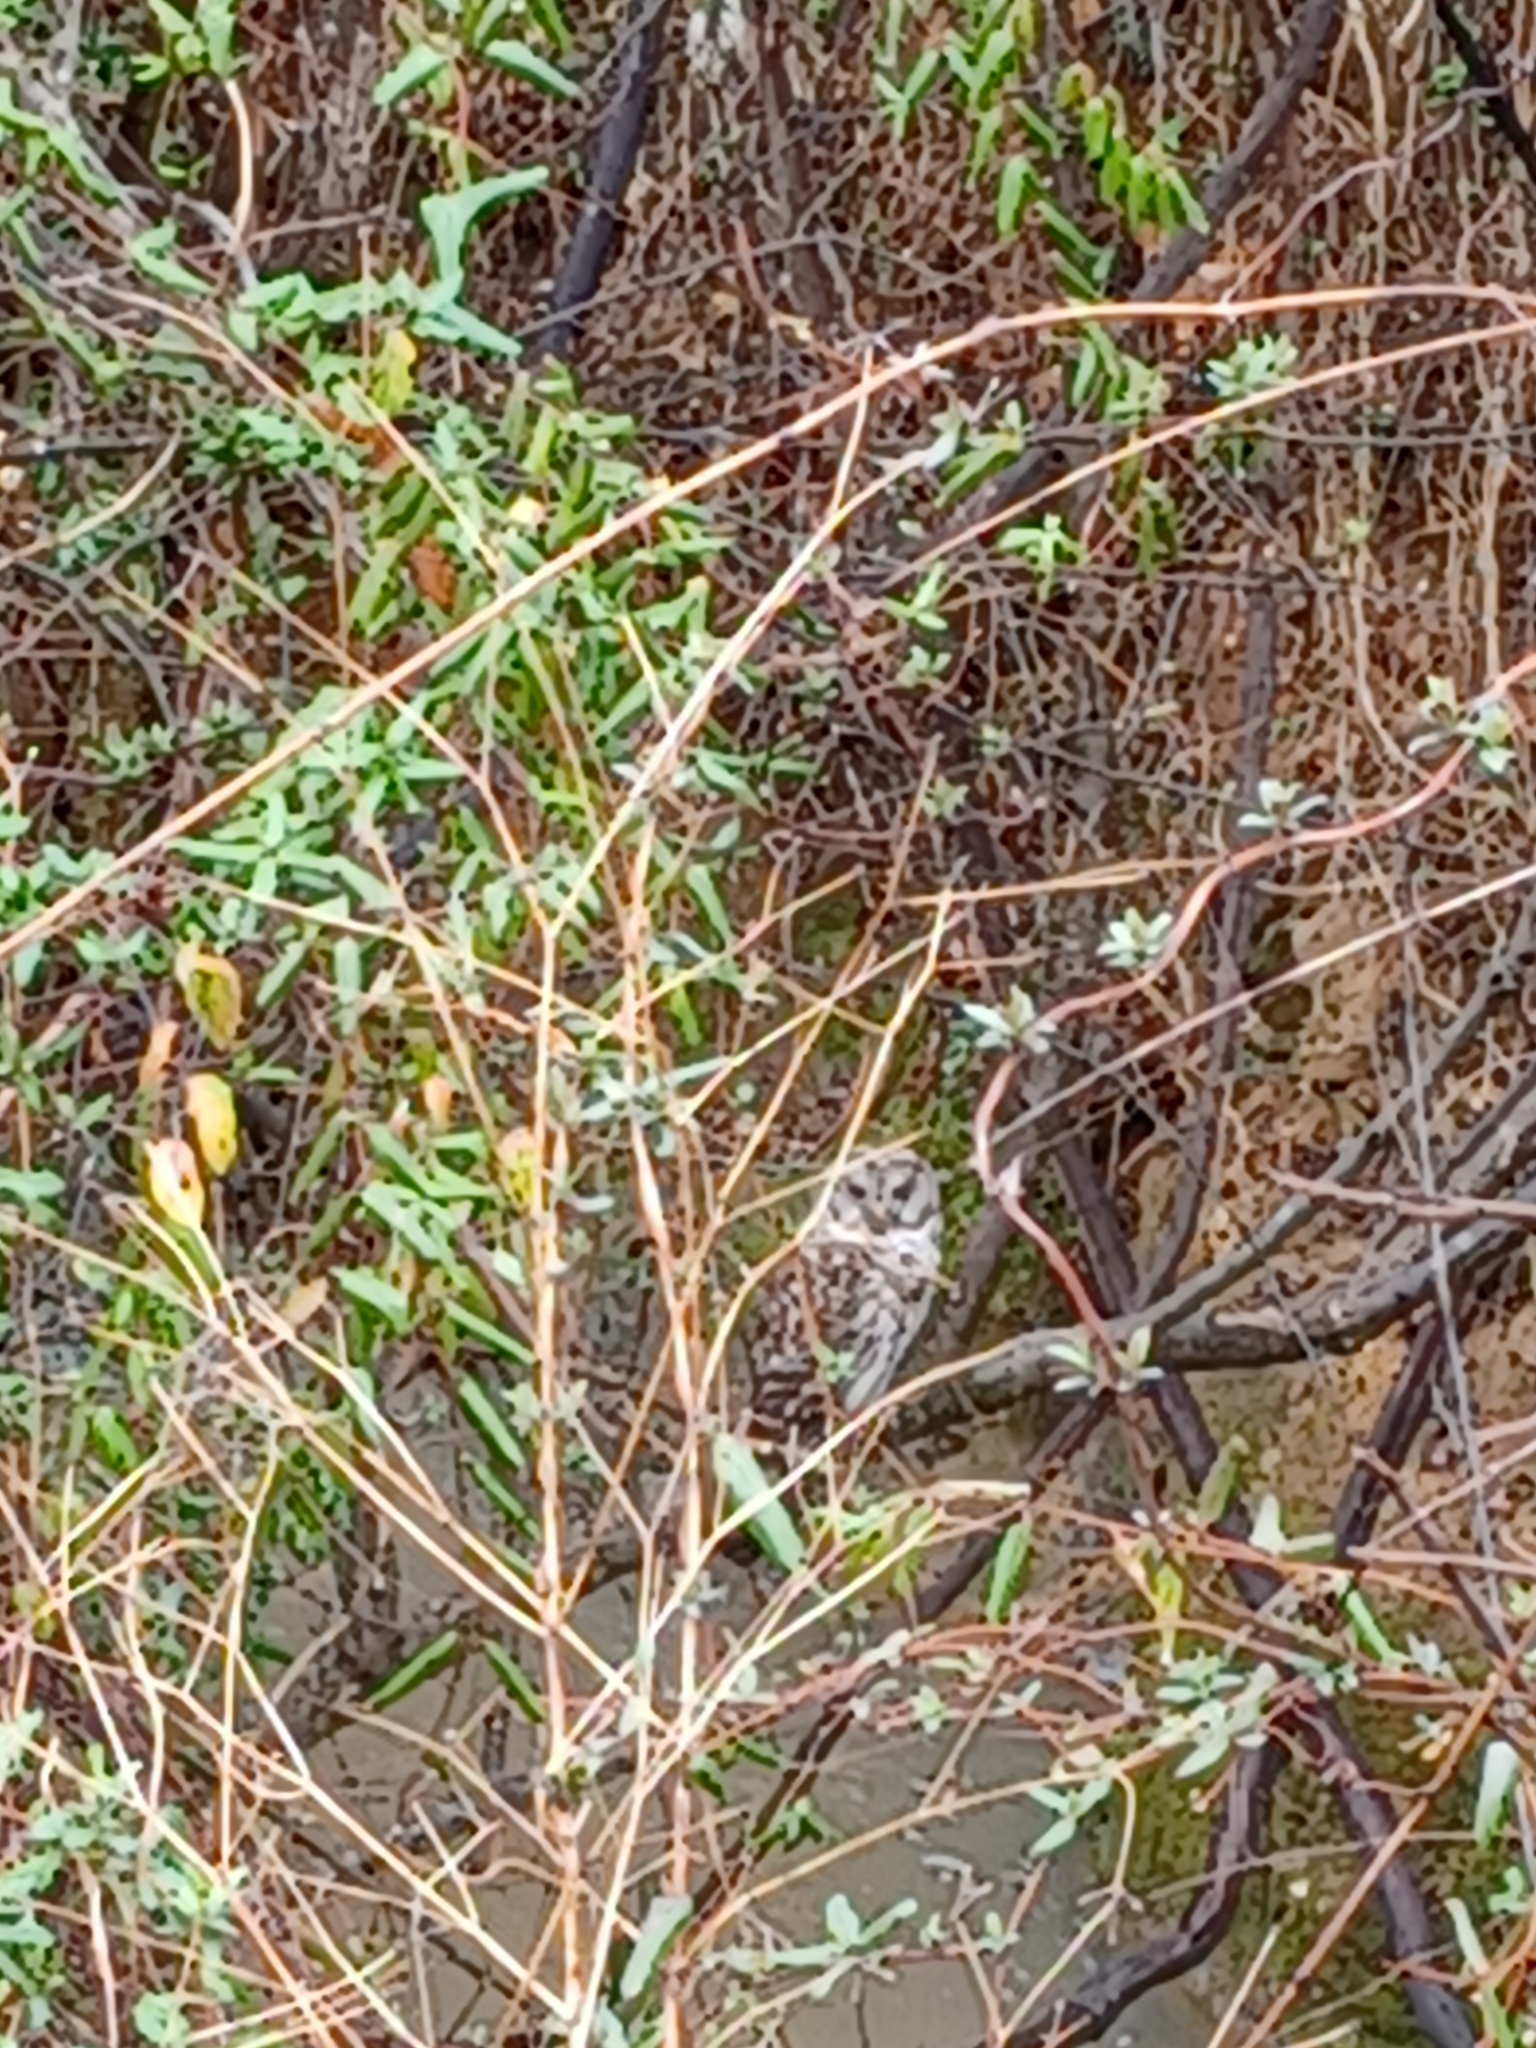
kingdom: Animalia
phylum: Chordata
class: Aves
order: Strigiformes
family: Strigidae
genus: Strix
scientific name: Strix varia
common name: Barred owl
